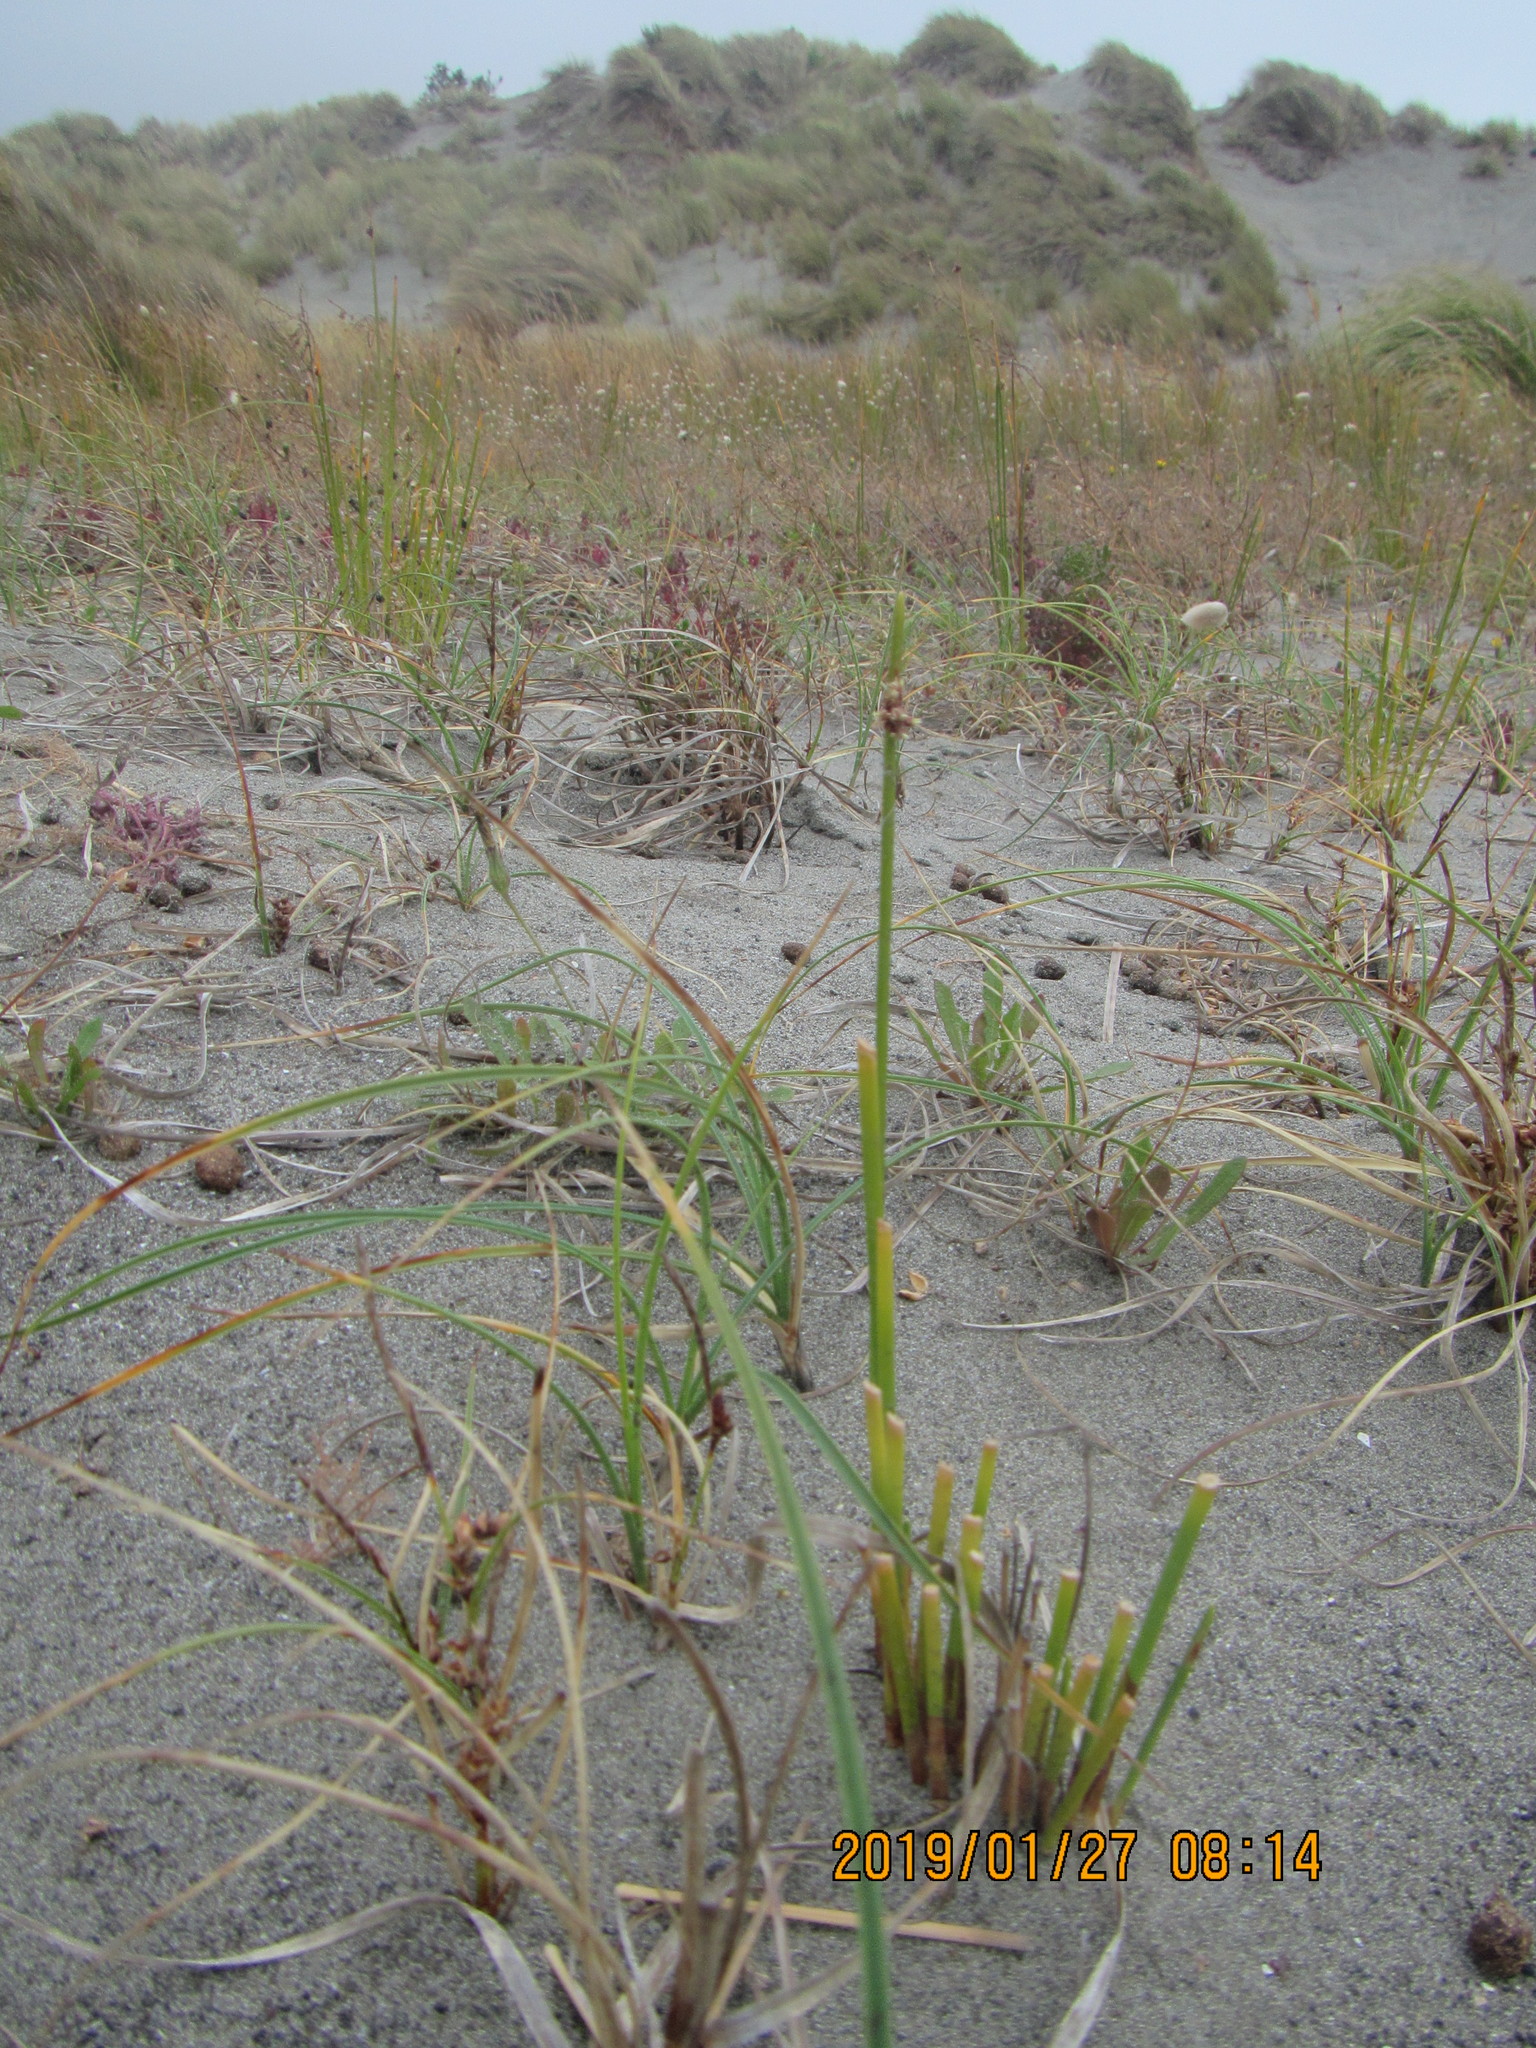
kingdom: Plantae
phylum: Tracheophyta
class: Liliopsida
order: Poales
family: Cyperaceae
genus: Ficinia
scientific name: Ficinia nodosa
